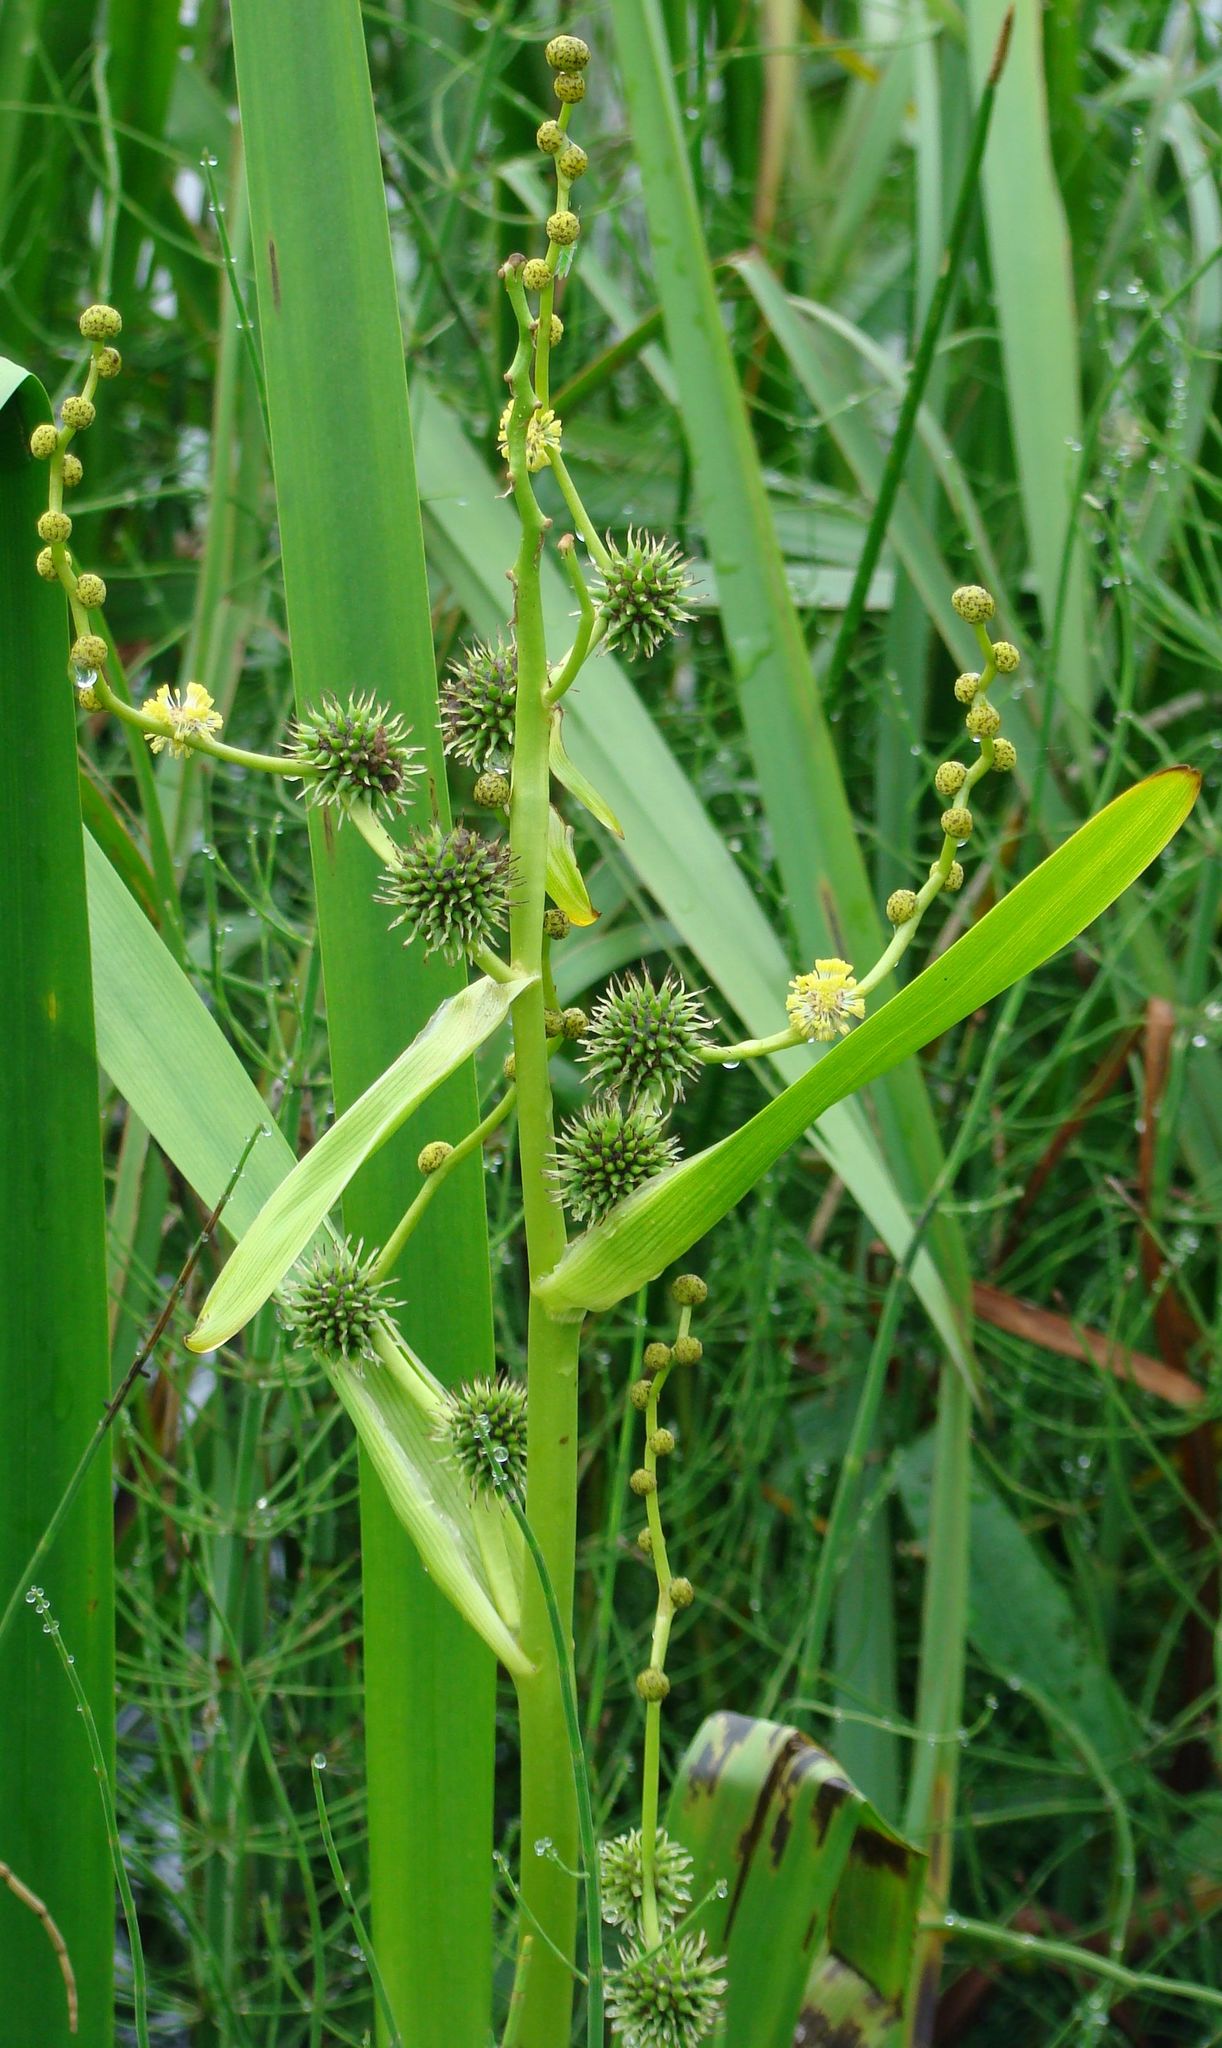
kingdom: Plantae
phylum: Tracheophyta
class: Liliopsida
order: Poales
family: Typhaceae
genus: Sparganium
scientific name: Sparganium erectum
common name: Branched bur-reed
